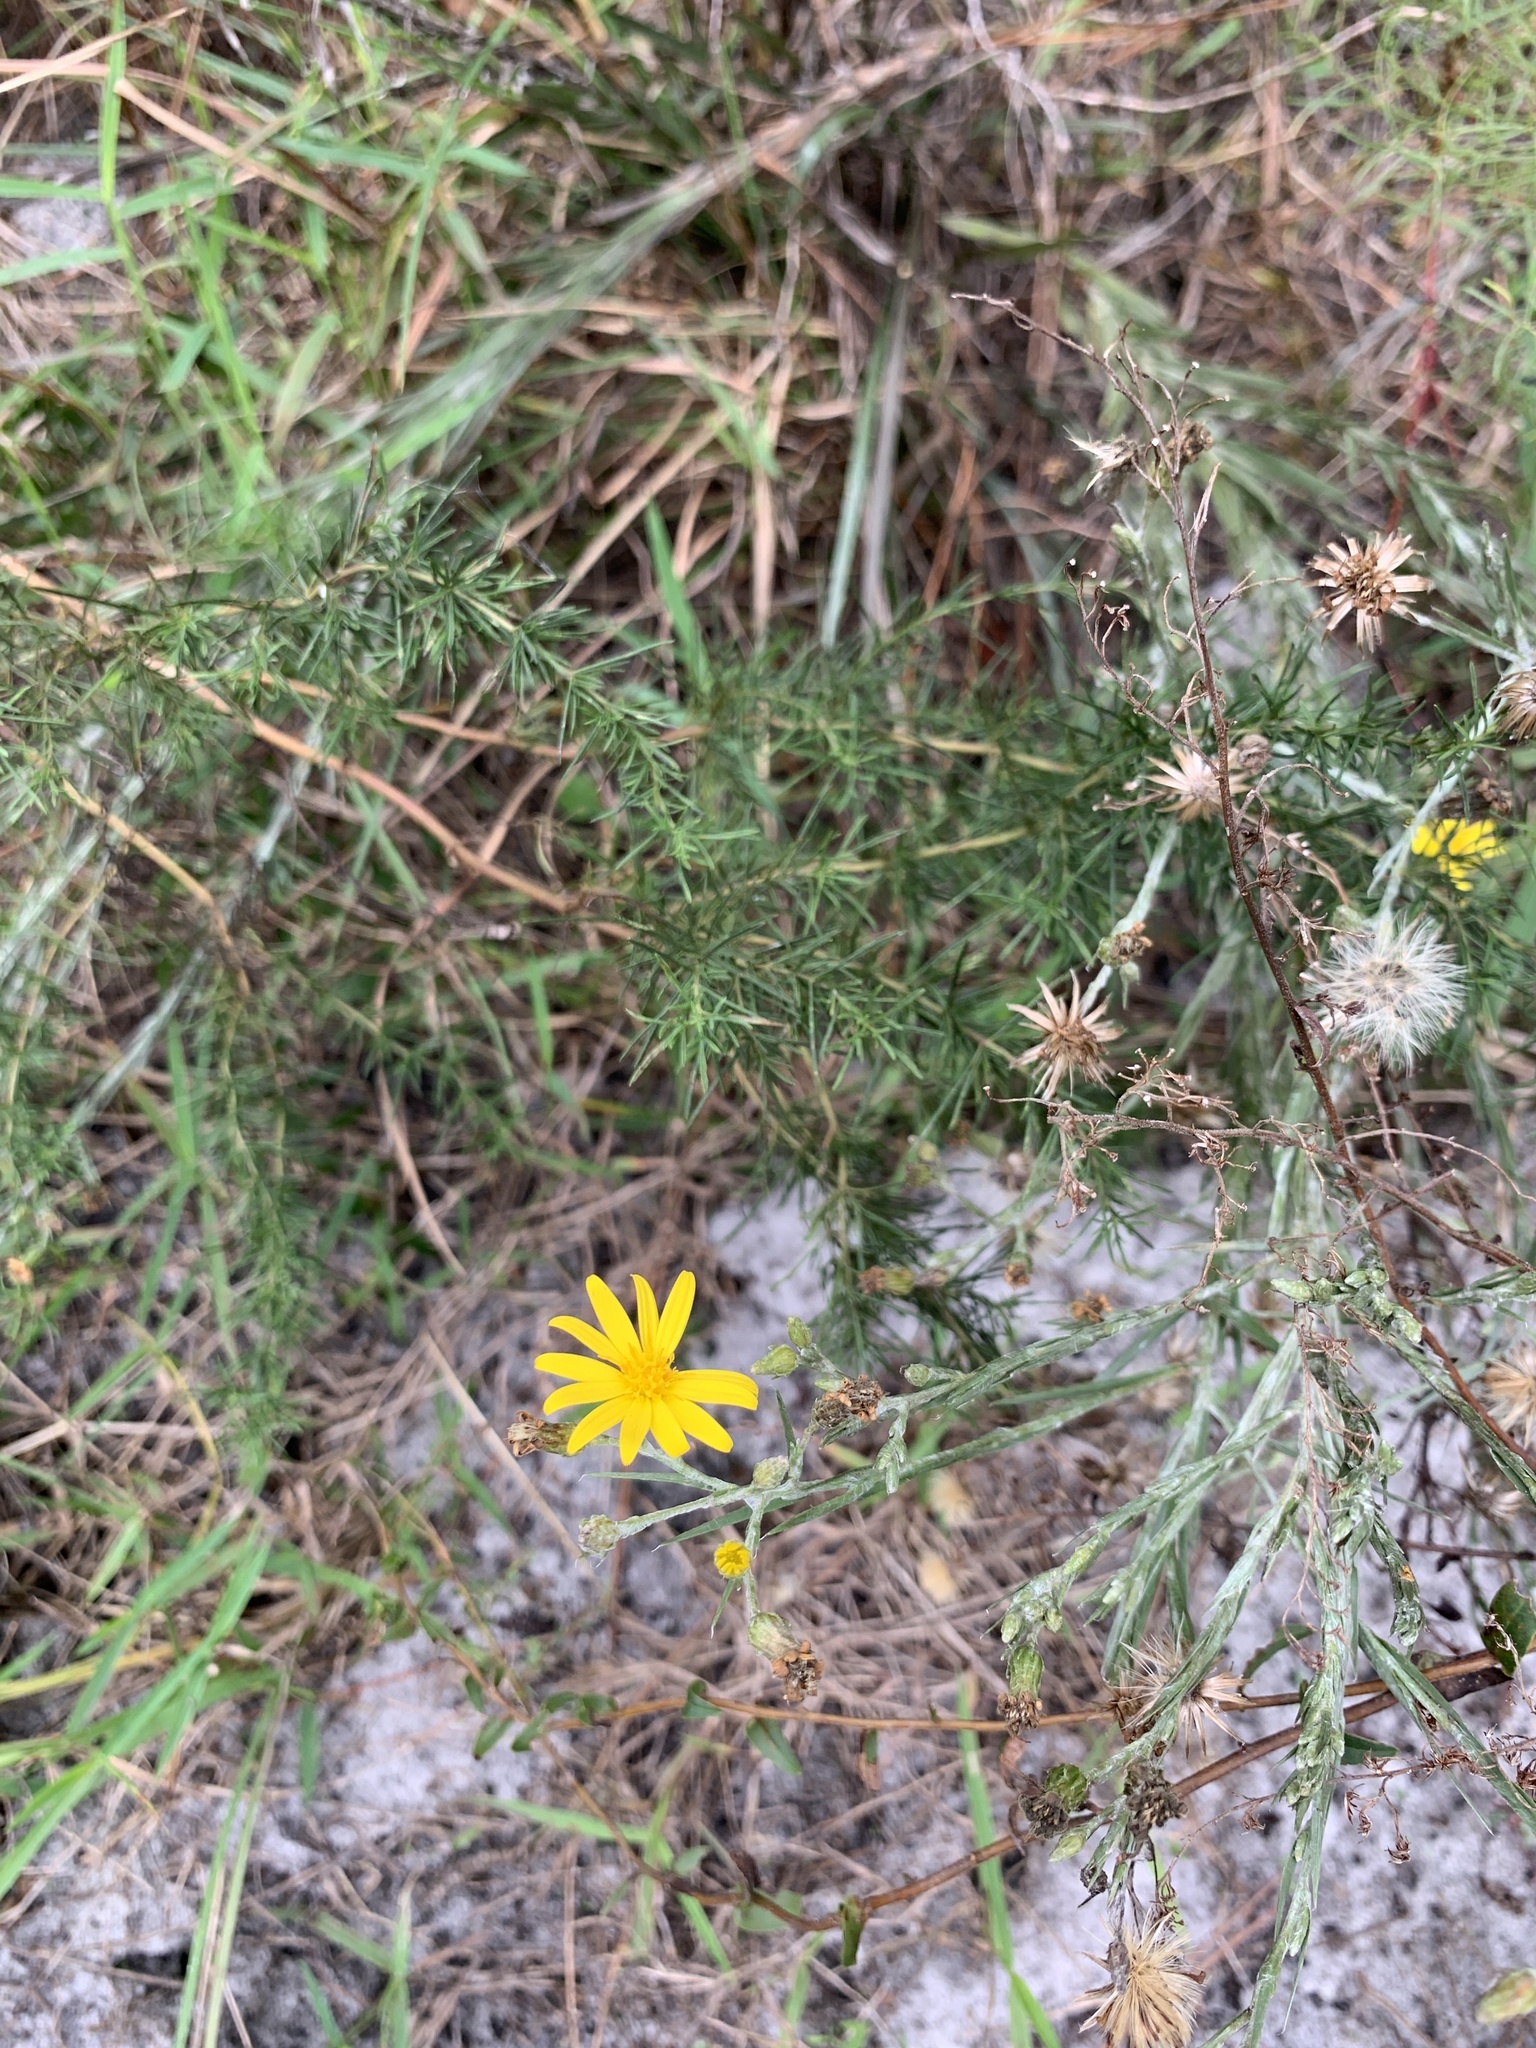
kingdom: Plantae
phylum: Tracheophyta
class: Magnoliopsida
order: Asterales
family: Asteraceae
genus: Pityopsis
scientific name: Pityopsis graminifolia
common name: Grass-leaf golden-aster
